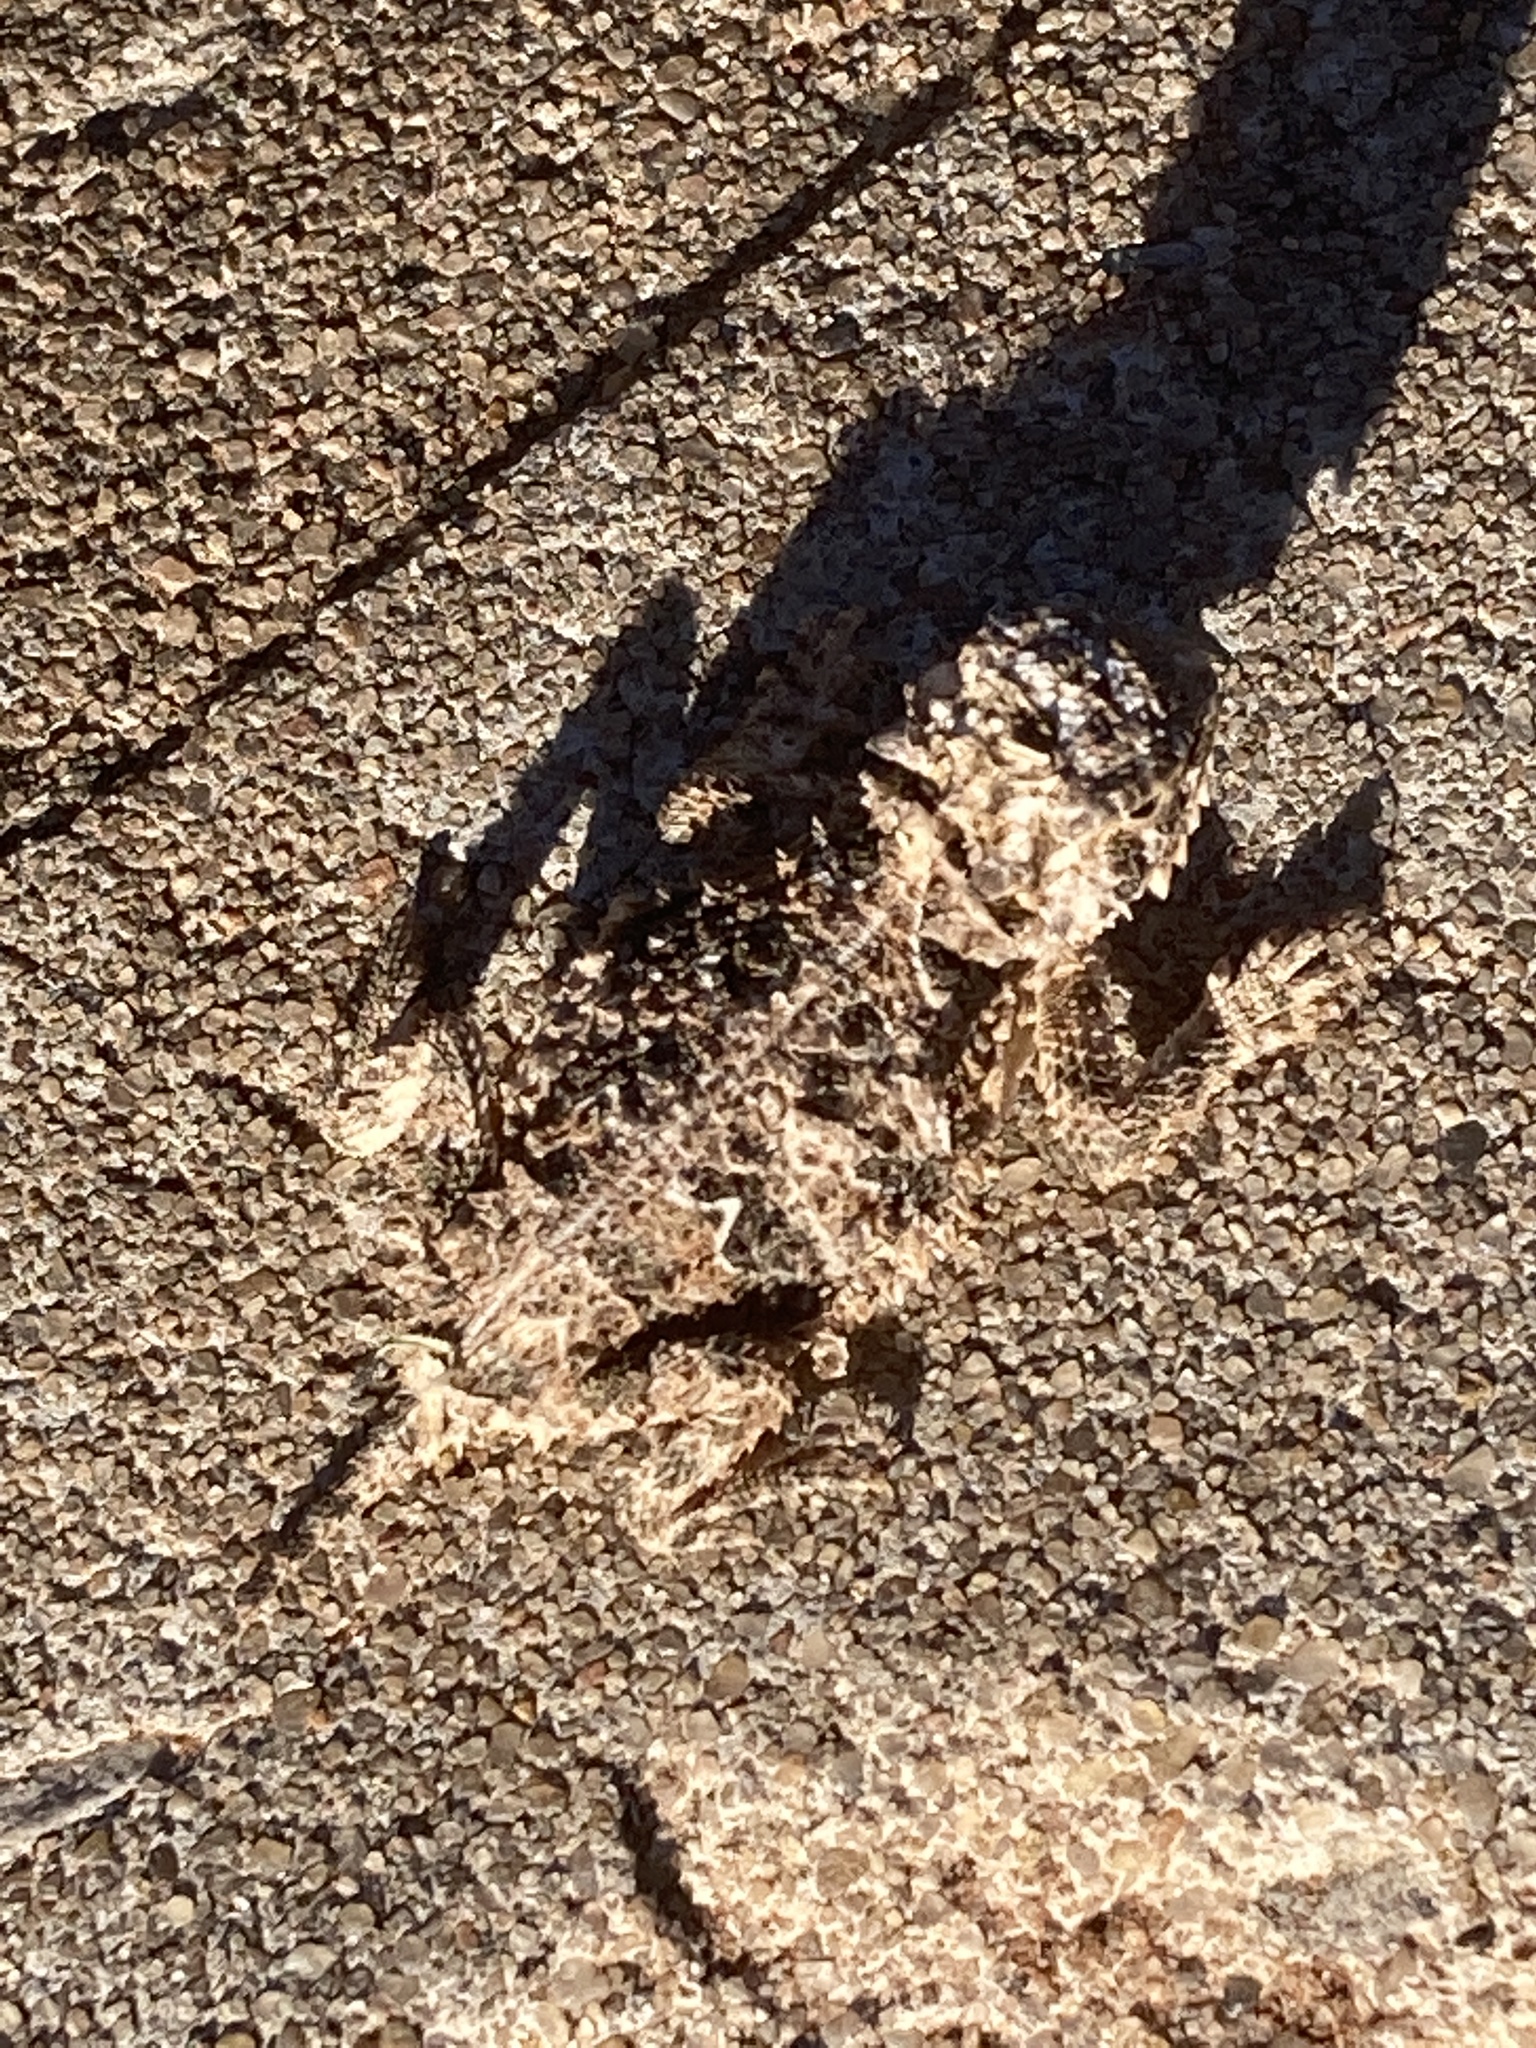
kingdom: Animalia
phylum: Chordata
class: Squamata
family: Phrynosomatidae
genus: Phrynosoma
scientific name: Phrynosoma cornutum
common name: Texas horned lizard
